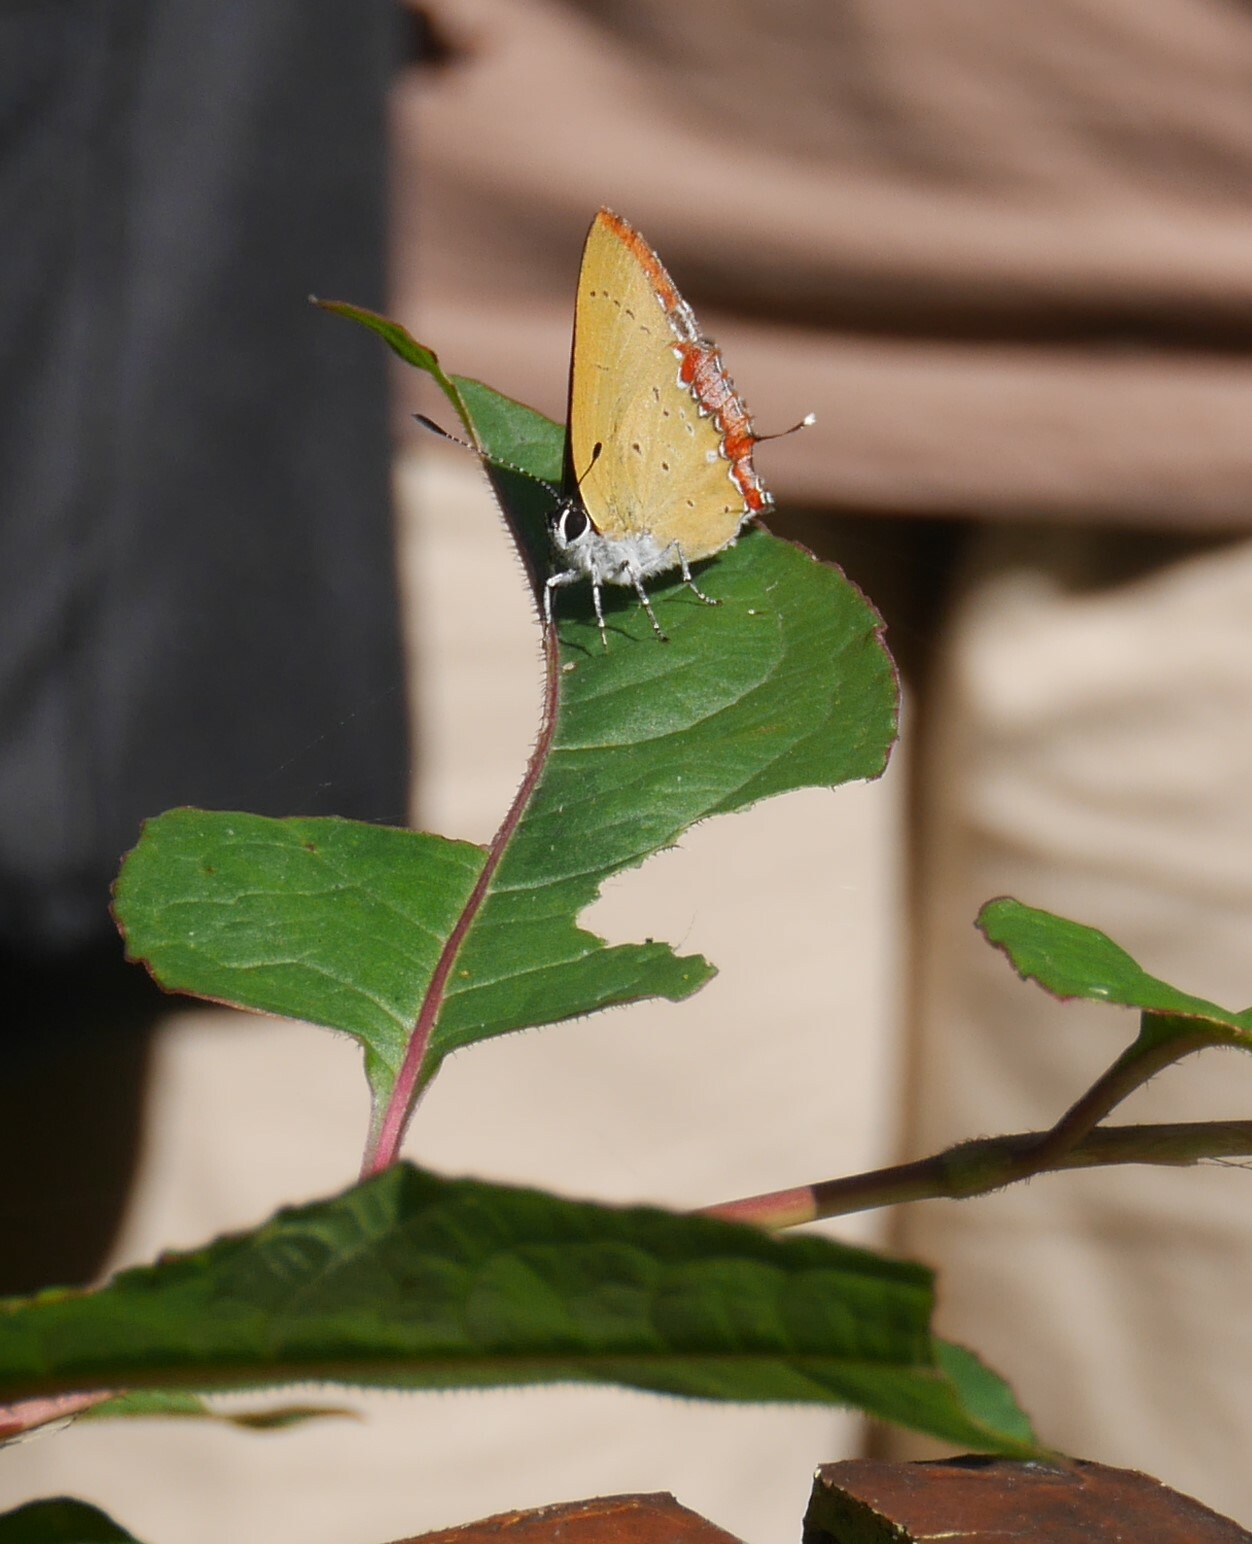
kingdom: Animalia
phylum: Arthropoda
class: Insecta
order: Lepidoptera
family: Lycaenidae
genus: Heliophorus
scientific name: Heliophorus ila
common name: Restricted purple sapphire
